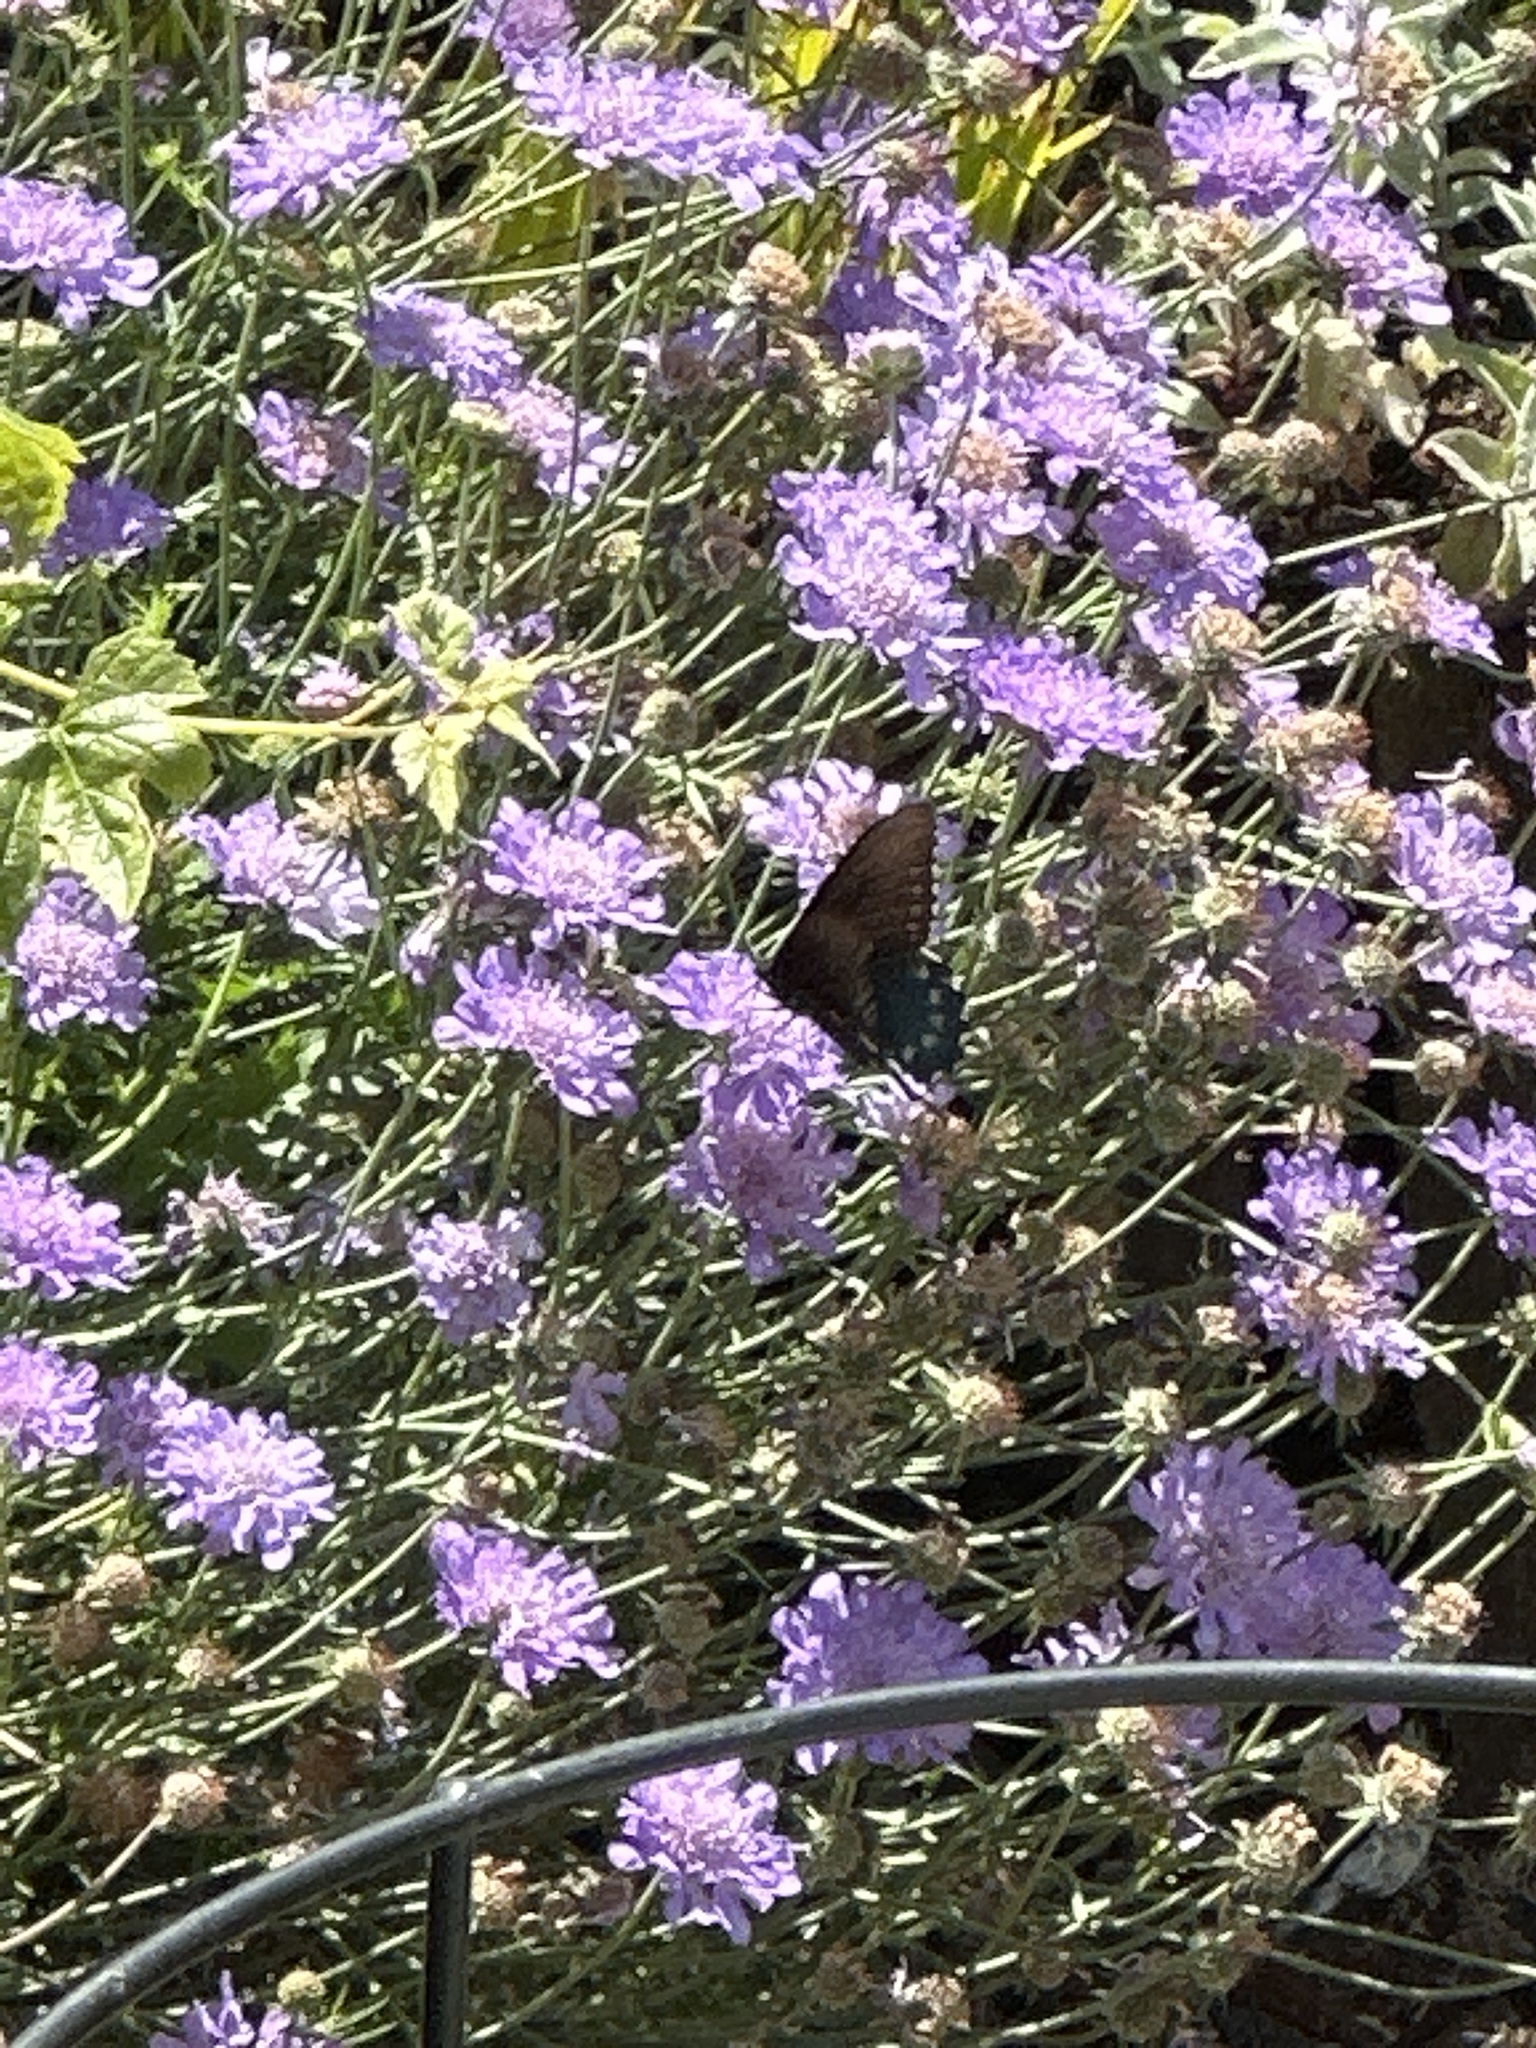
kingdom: Animalia
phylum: Arthropoda
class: Insecta
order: Lepidoptera
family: Papilionidae
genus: Battus
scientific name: Battus philenor
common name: Pipevine swallowtail
